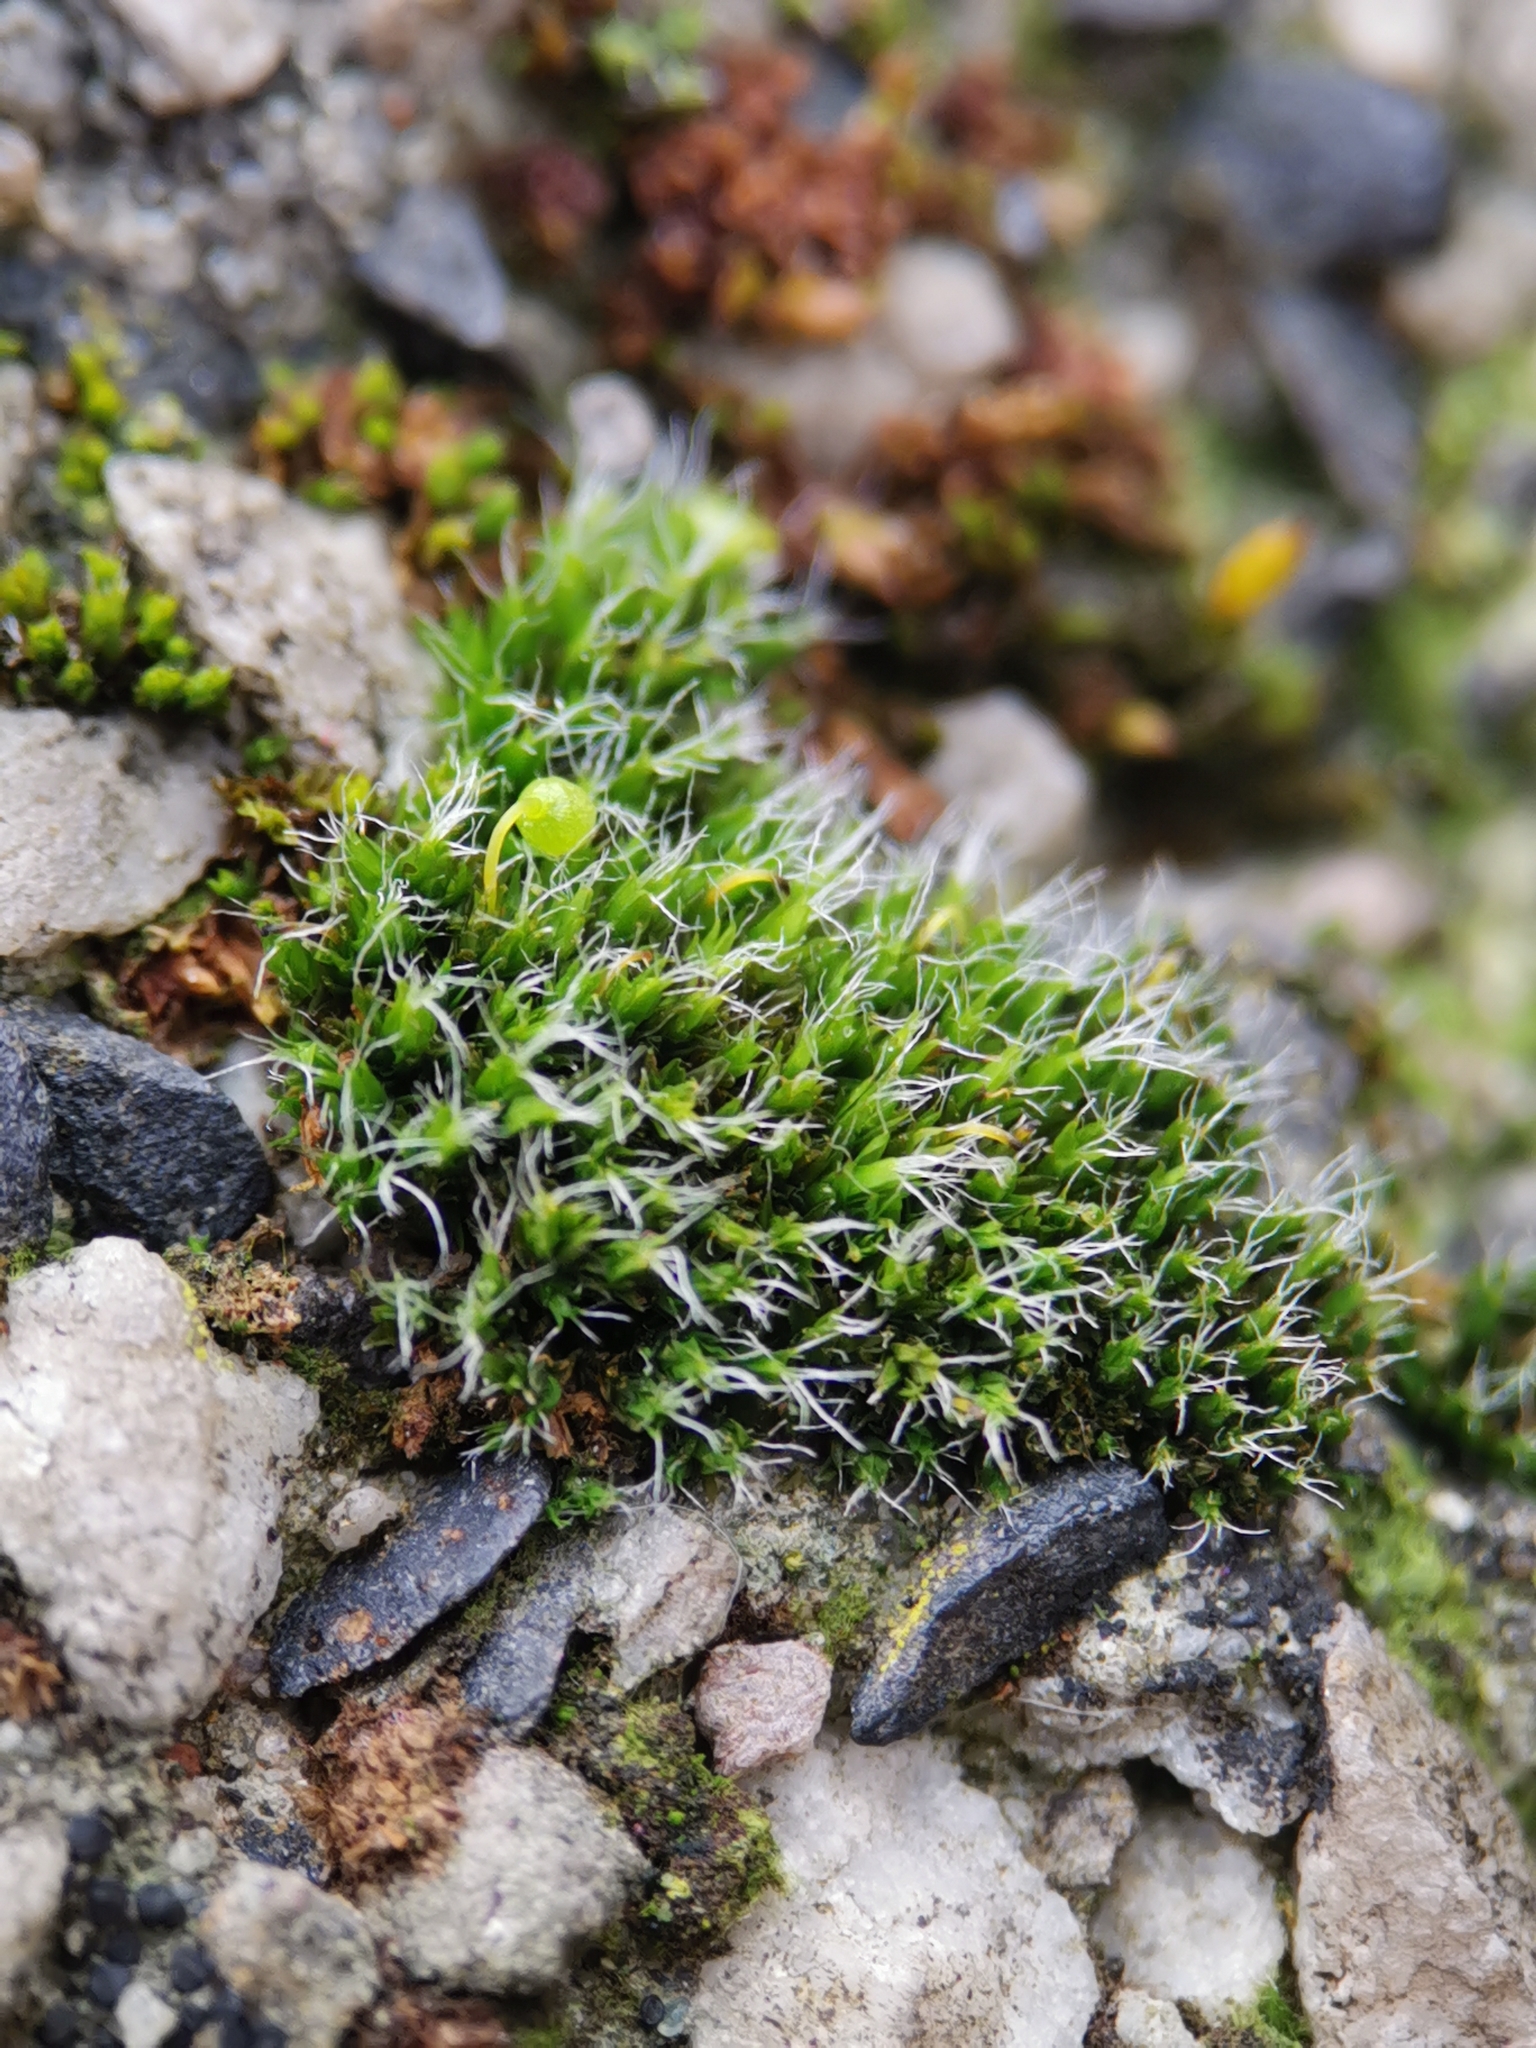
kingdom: Plantae
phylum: Bryophyta
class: Bryopsida
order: Grimmiales
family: Grimmiaceae
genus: Grimmia
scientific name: Grimmia pulvinata
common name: Grey-cushioned grimmia
